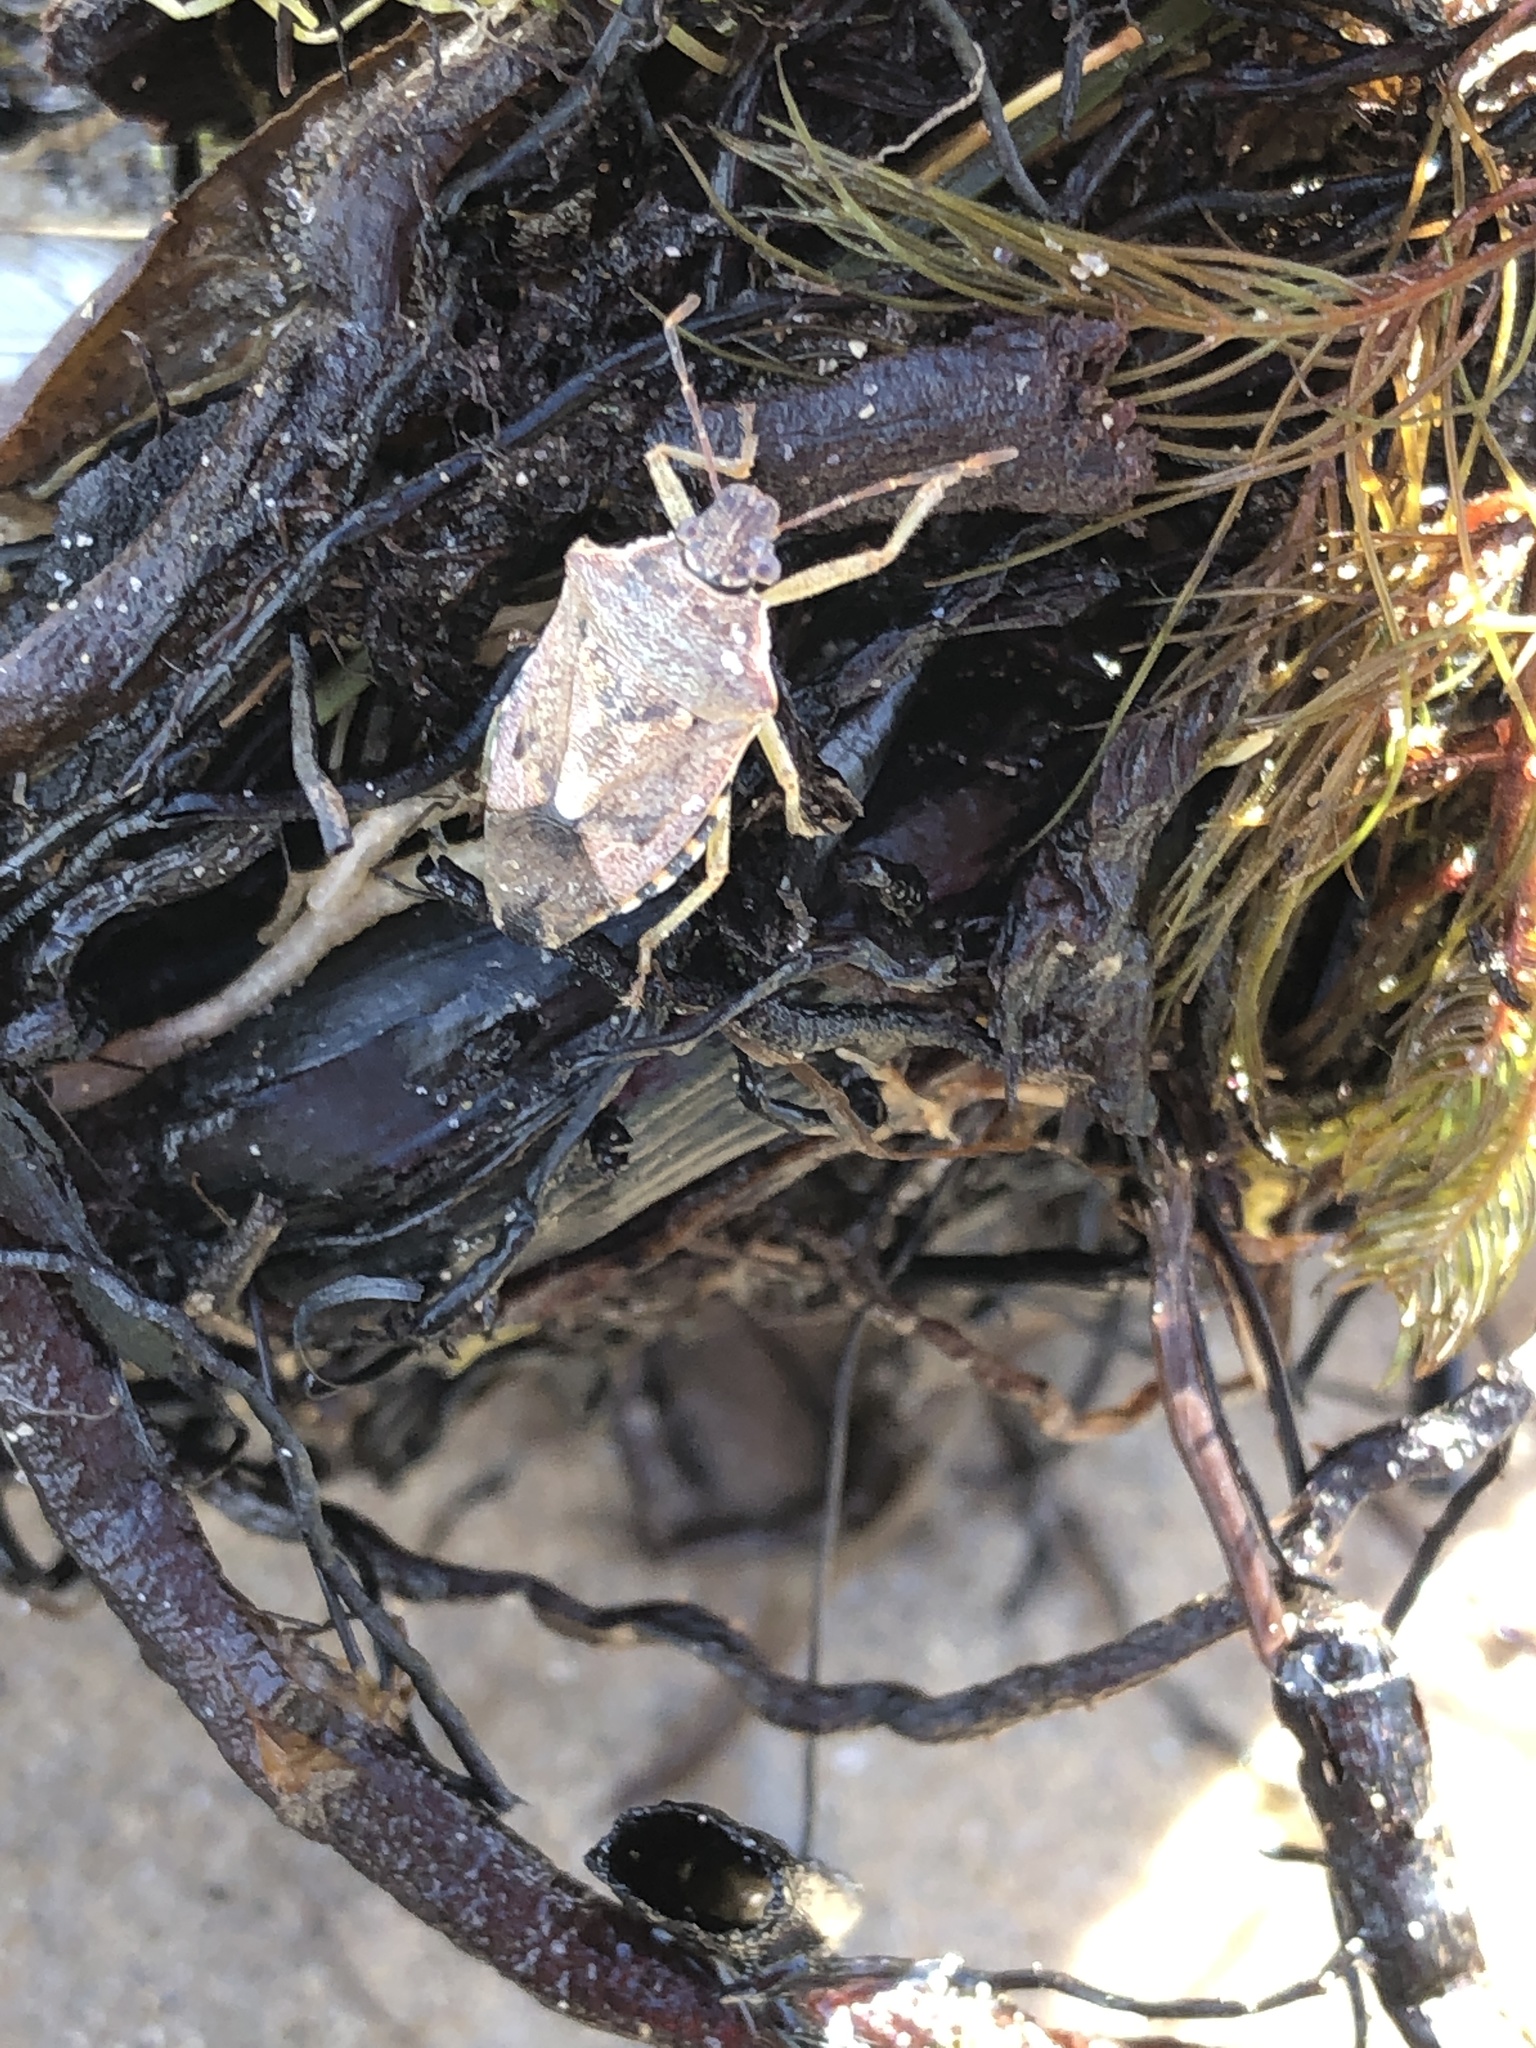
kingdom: Animalia
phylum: Arthropoda
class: Insecta
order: Hemiptera
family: Pentatomidae
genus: Podisus
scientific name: Podisus serieventris
